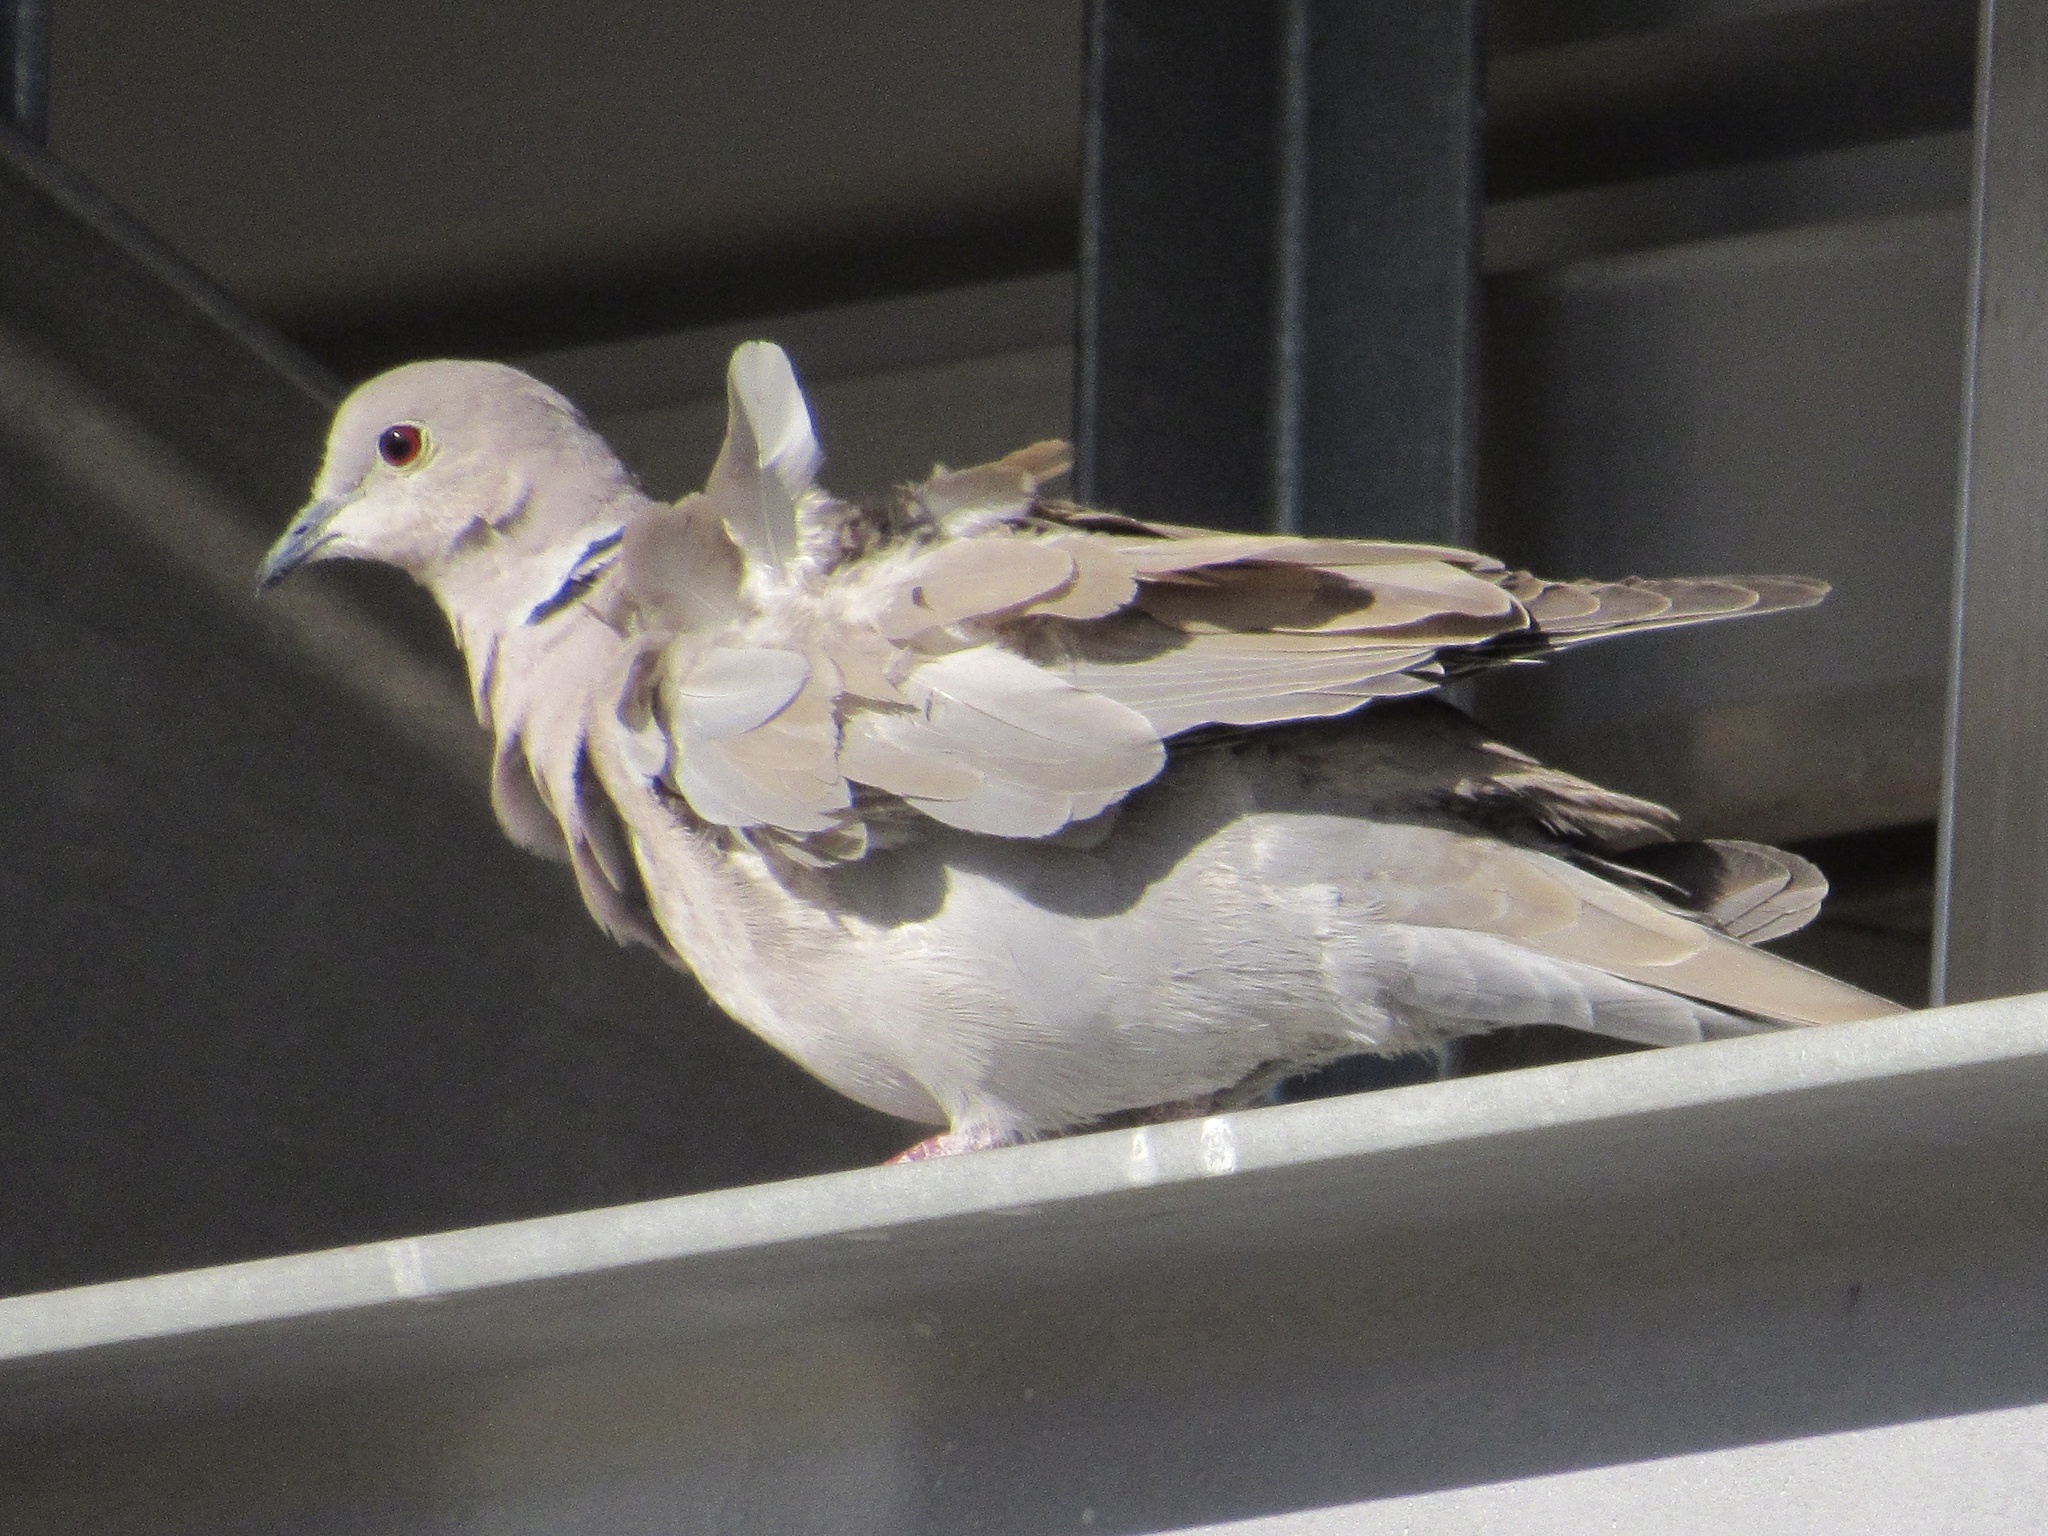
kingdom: Animalia
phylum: Chordata
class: Aves
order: Columbiformes
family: Columbidae
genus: Streptopelia
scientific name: Streptopelia decaocto
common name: Eurasian collared dove
